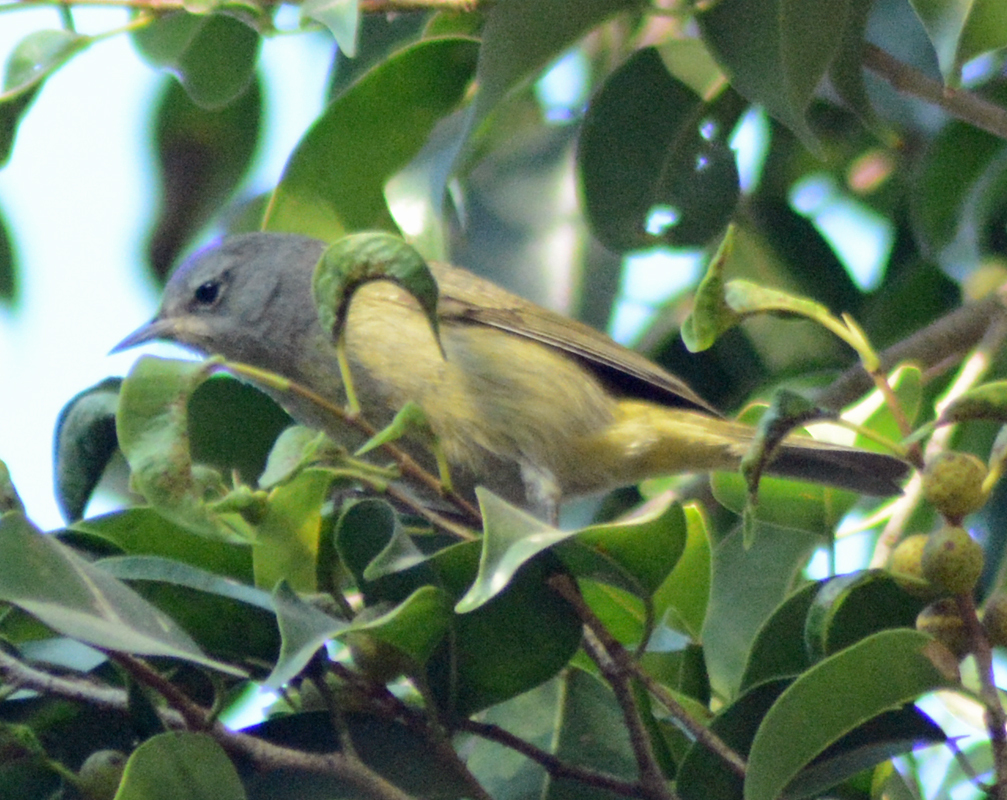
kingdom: Animalia
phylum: Chordata
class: Aves
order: Passeriformes
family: Parulidae
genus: Leiothlypis
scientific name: Leiothlypis celata
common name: Orange-crowned warbler
